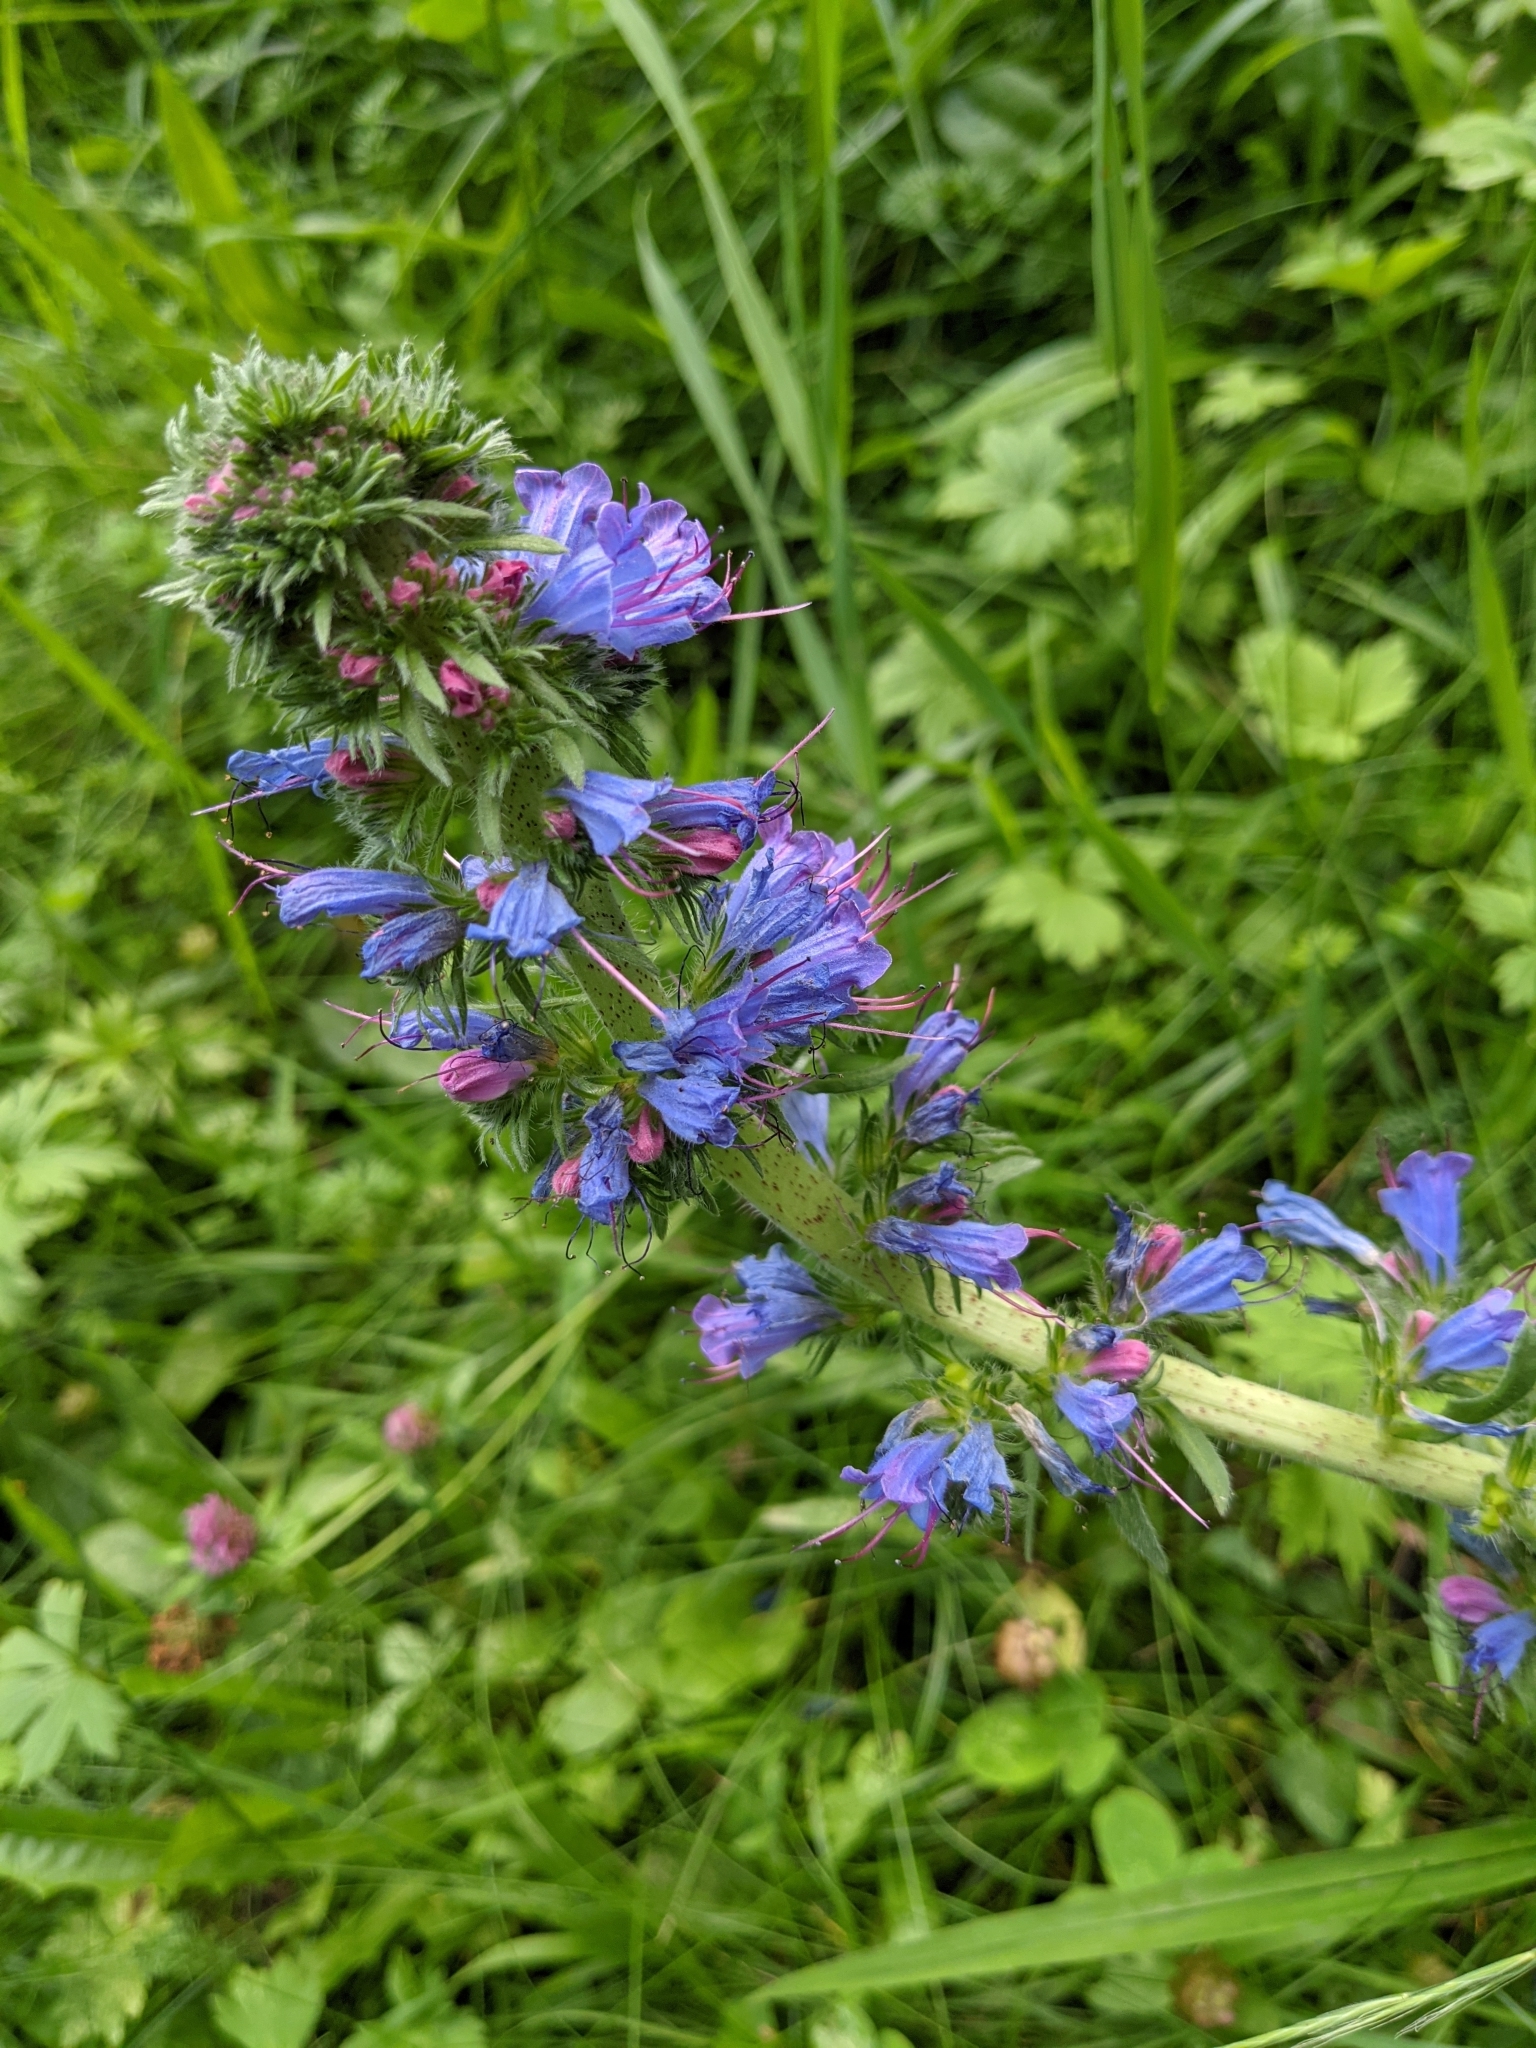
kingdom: Plantae
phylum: Tracheophyta
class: Magnoliopsida
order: Boraginales
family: Boraginaceae
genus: Echium
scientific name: Echium vulgare
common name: Common viper's bugloss
